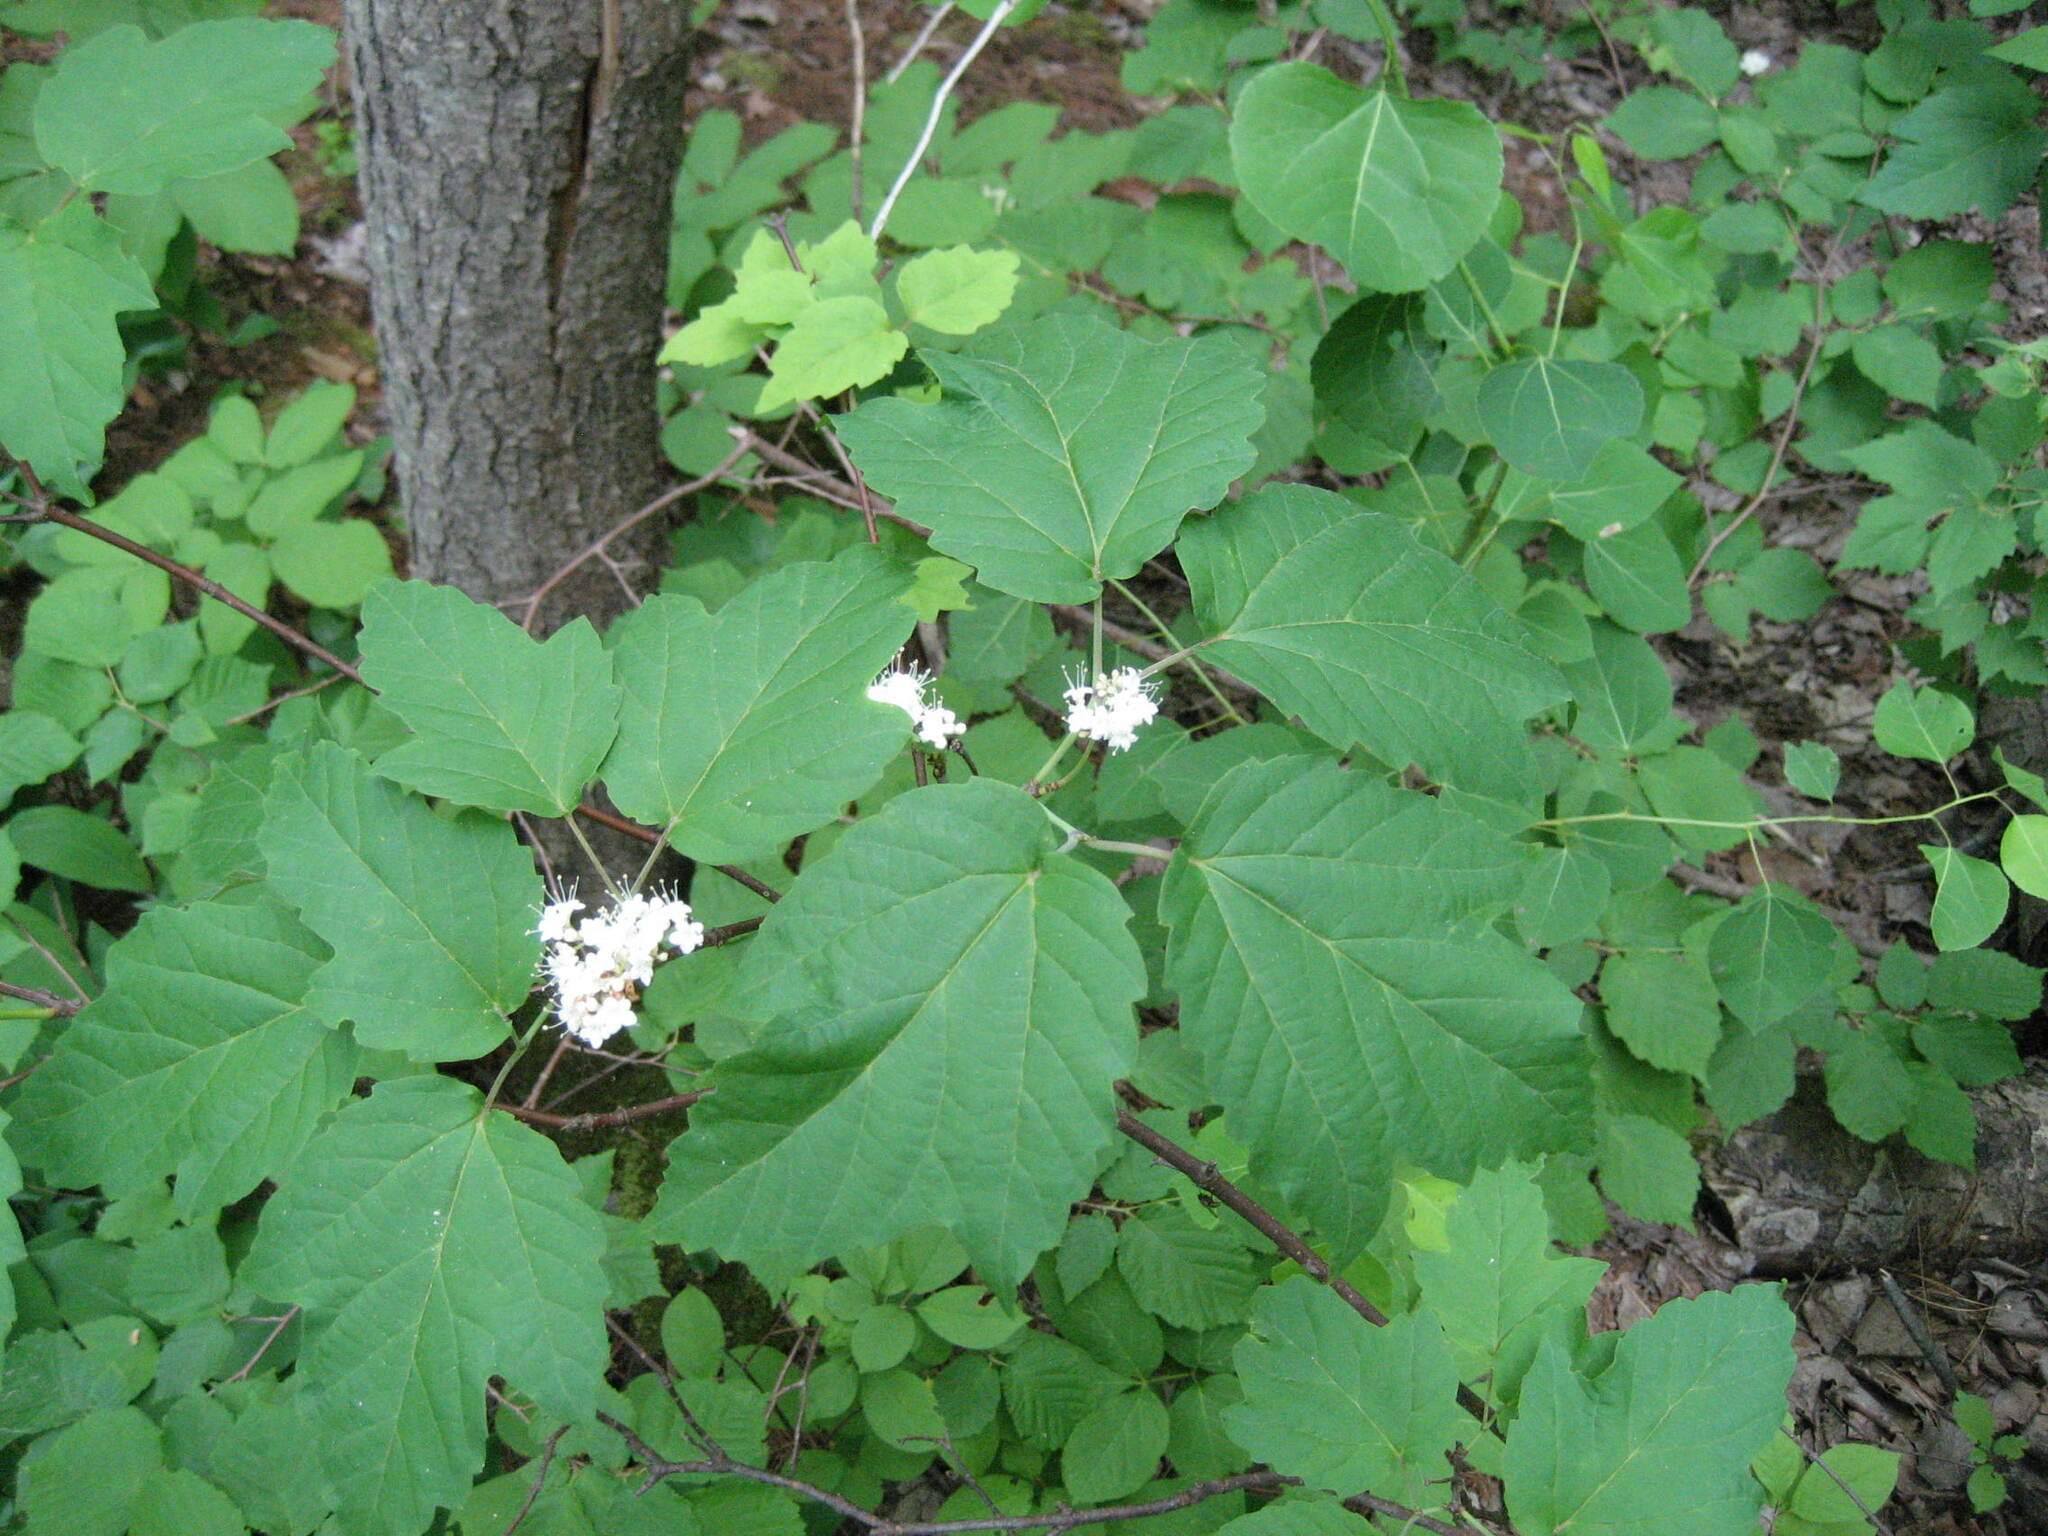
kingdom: Plantae
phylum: Tracheophyta
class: Magnoliopsida
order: Dipsacales
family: Viburnaceae
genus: Viburnum
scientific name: Viburnum acerifolium
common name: Dockmackie
